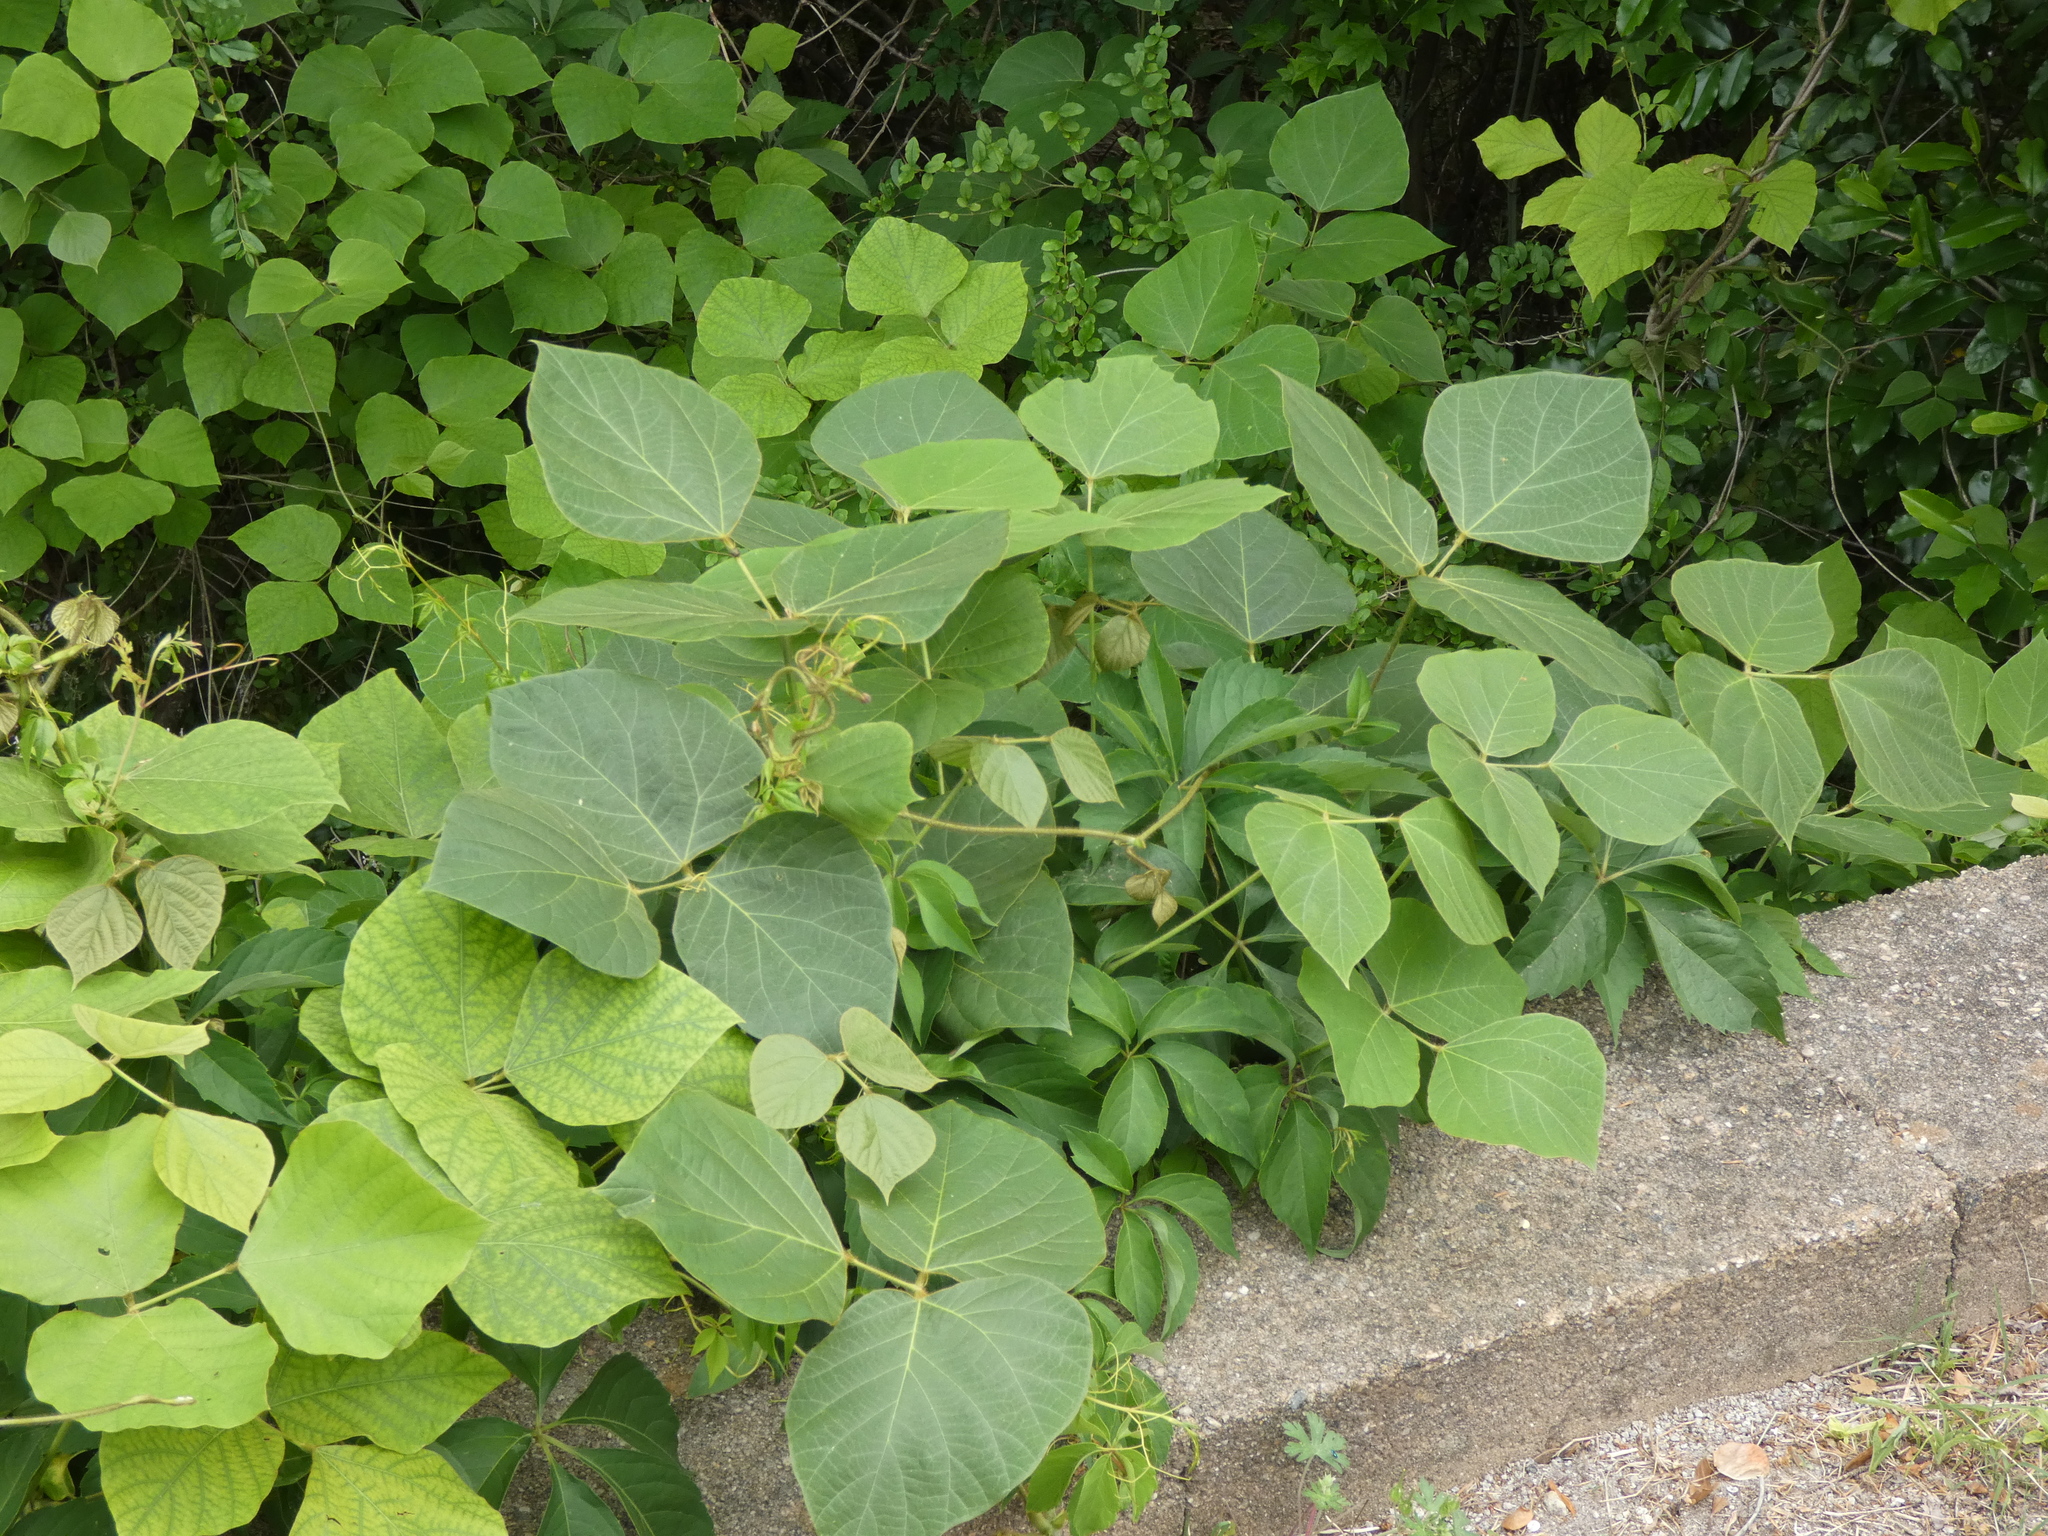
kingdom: Plantae
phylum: Tracheophyta
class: Magnoliopsida
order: Fabales
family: Fabaceae
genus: Pueraria
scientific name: Pueraria montana
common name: Kudzu
